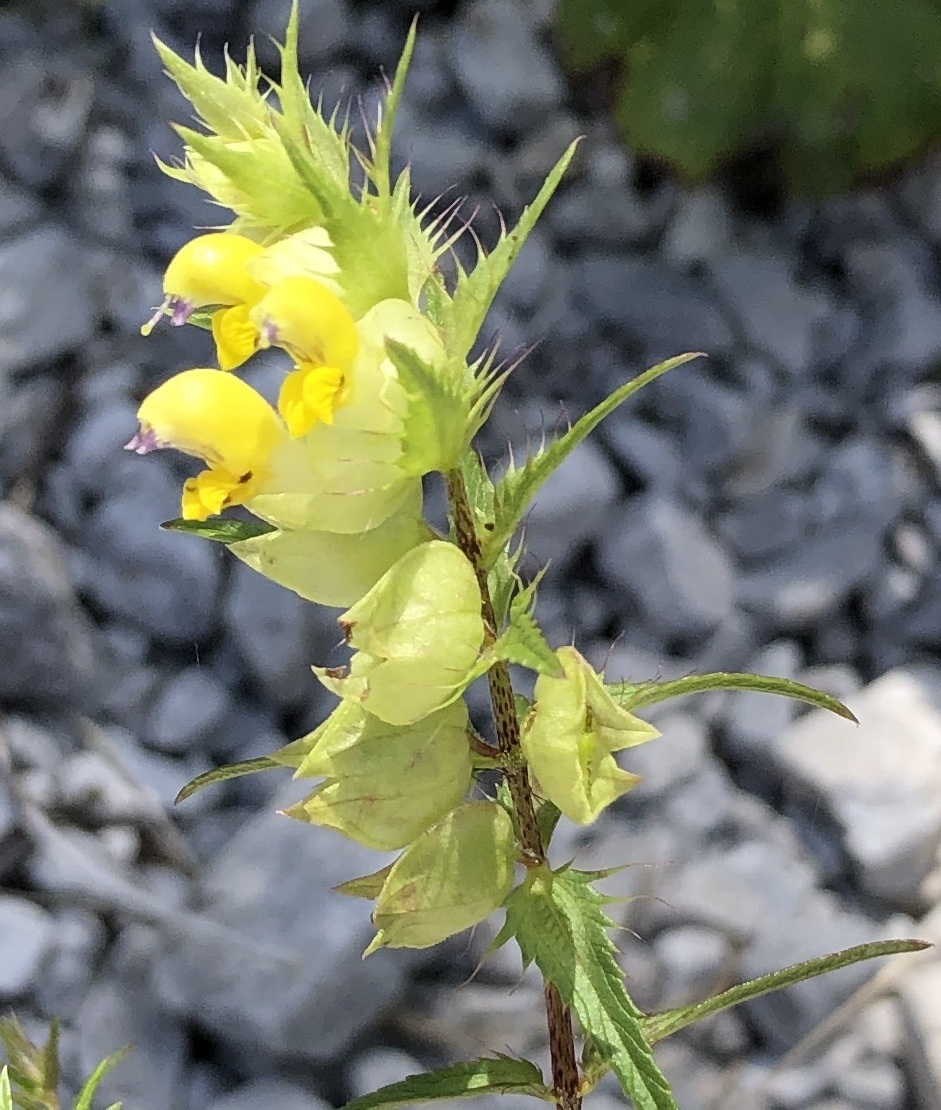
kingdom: Plantae
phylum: Tracheophyta
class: Magnoliopsida
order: Lamiales
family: Orobanchaceae
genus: Rhinanthus
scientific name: Rhinanthus glacialis
